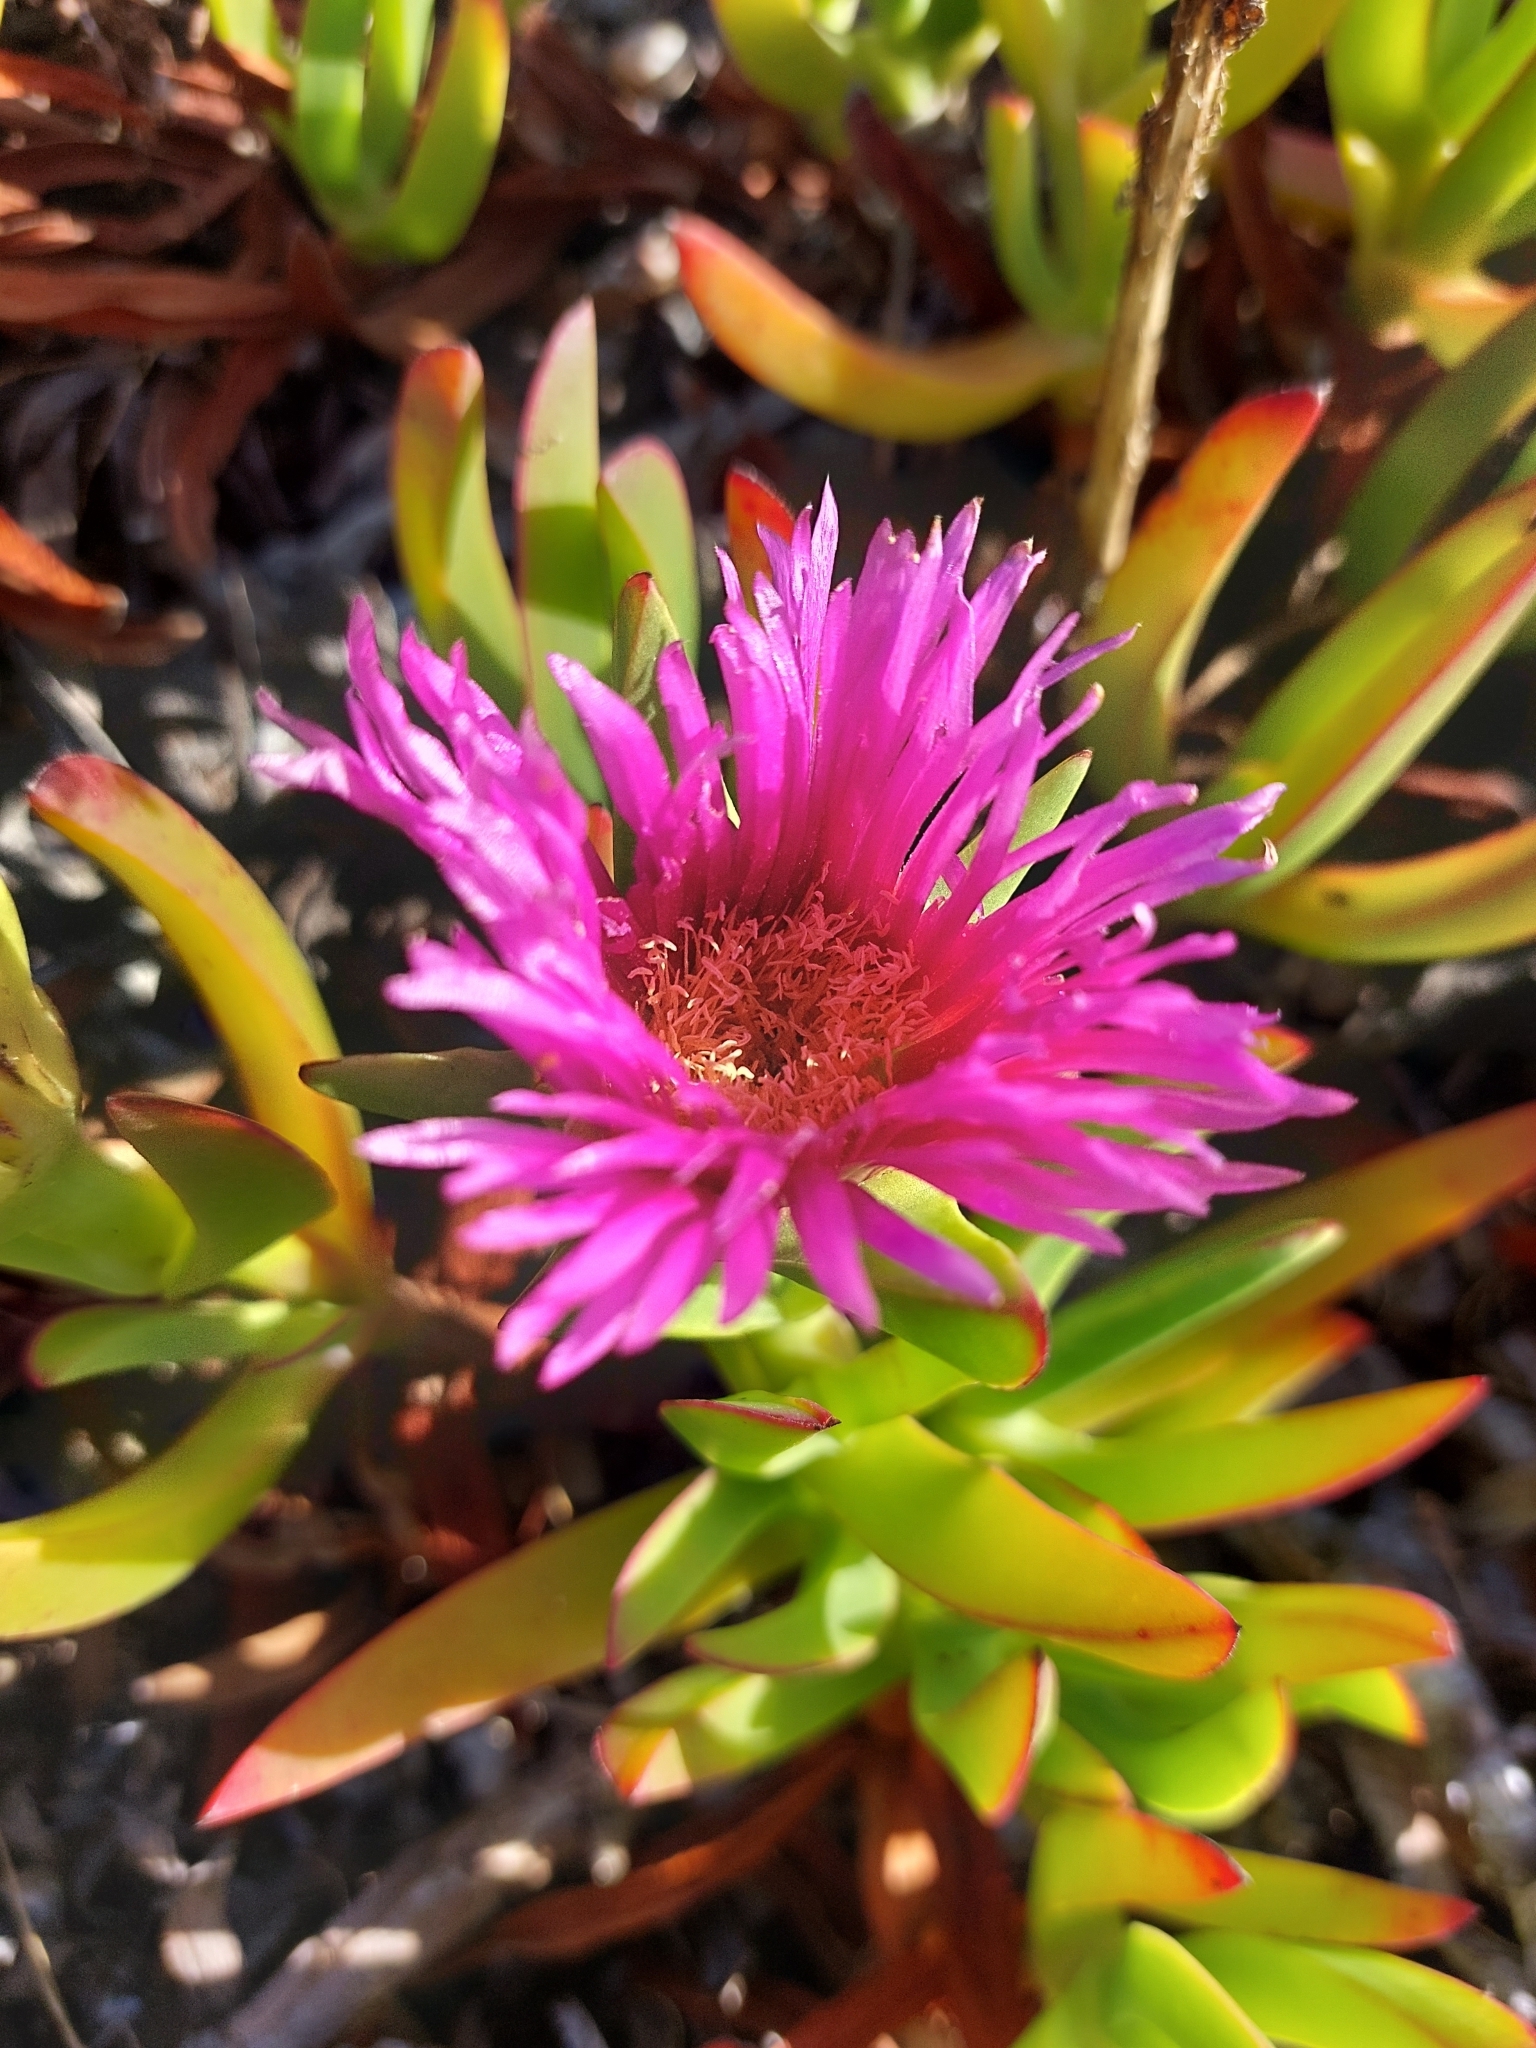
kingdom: Plantae
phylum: Tracheophyta
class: Magnoliopsida
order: Caryophyllales
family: Aizoaceae
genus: Carpobrotus
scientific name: Carpobrotus acinaciformis
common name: Sally-my-handsome
